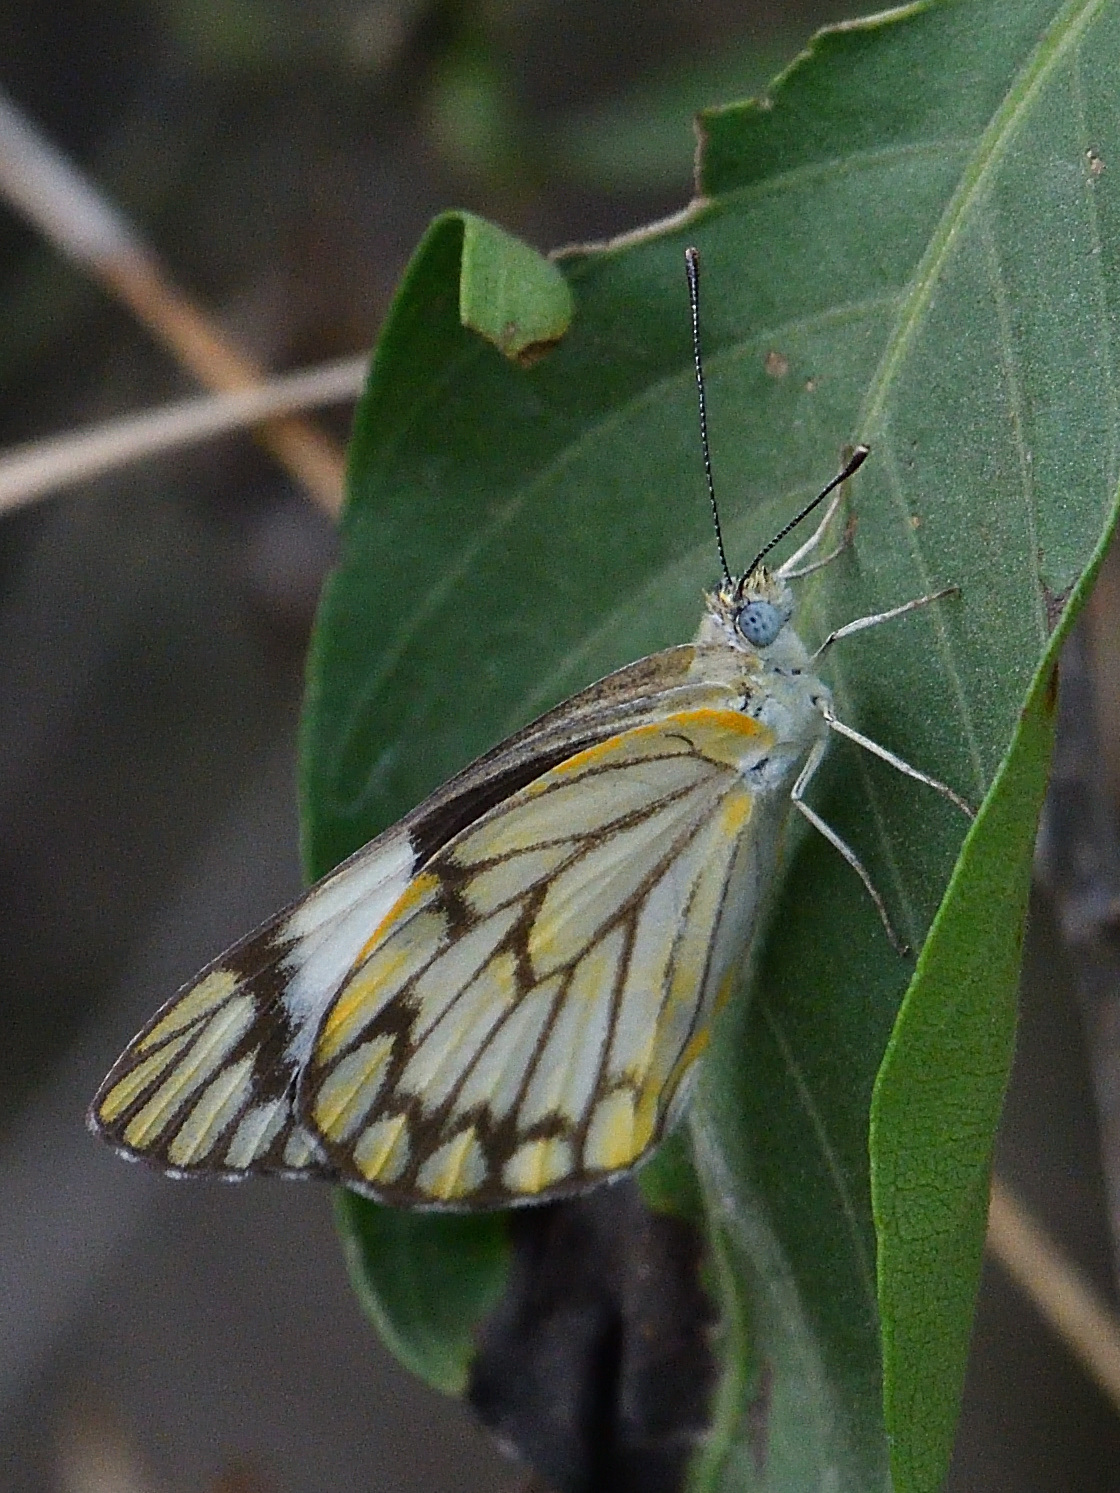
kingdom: Animalia
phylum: Arthropoda
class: Insecta
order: Lepidoptera
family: Pieridae
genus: Belenois
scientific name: Belenois aurota
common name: Brown-veined white
